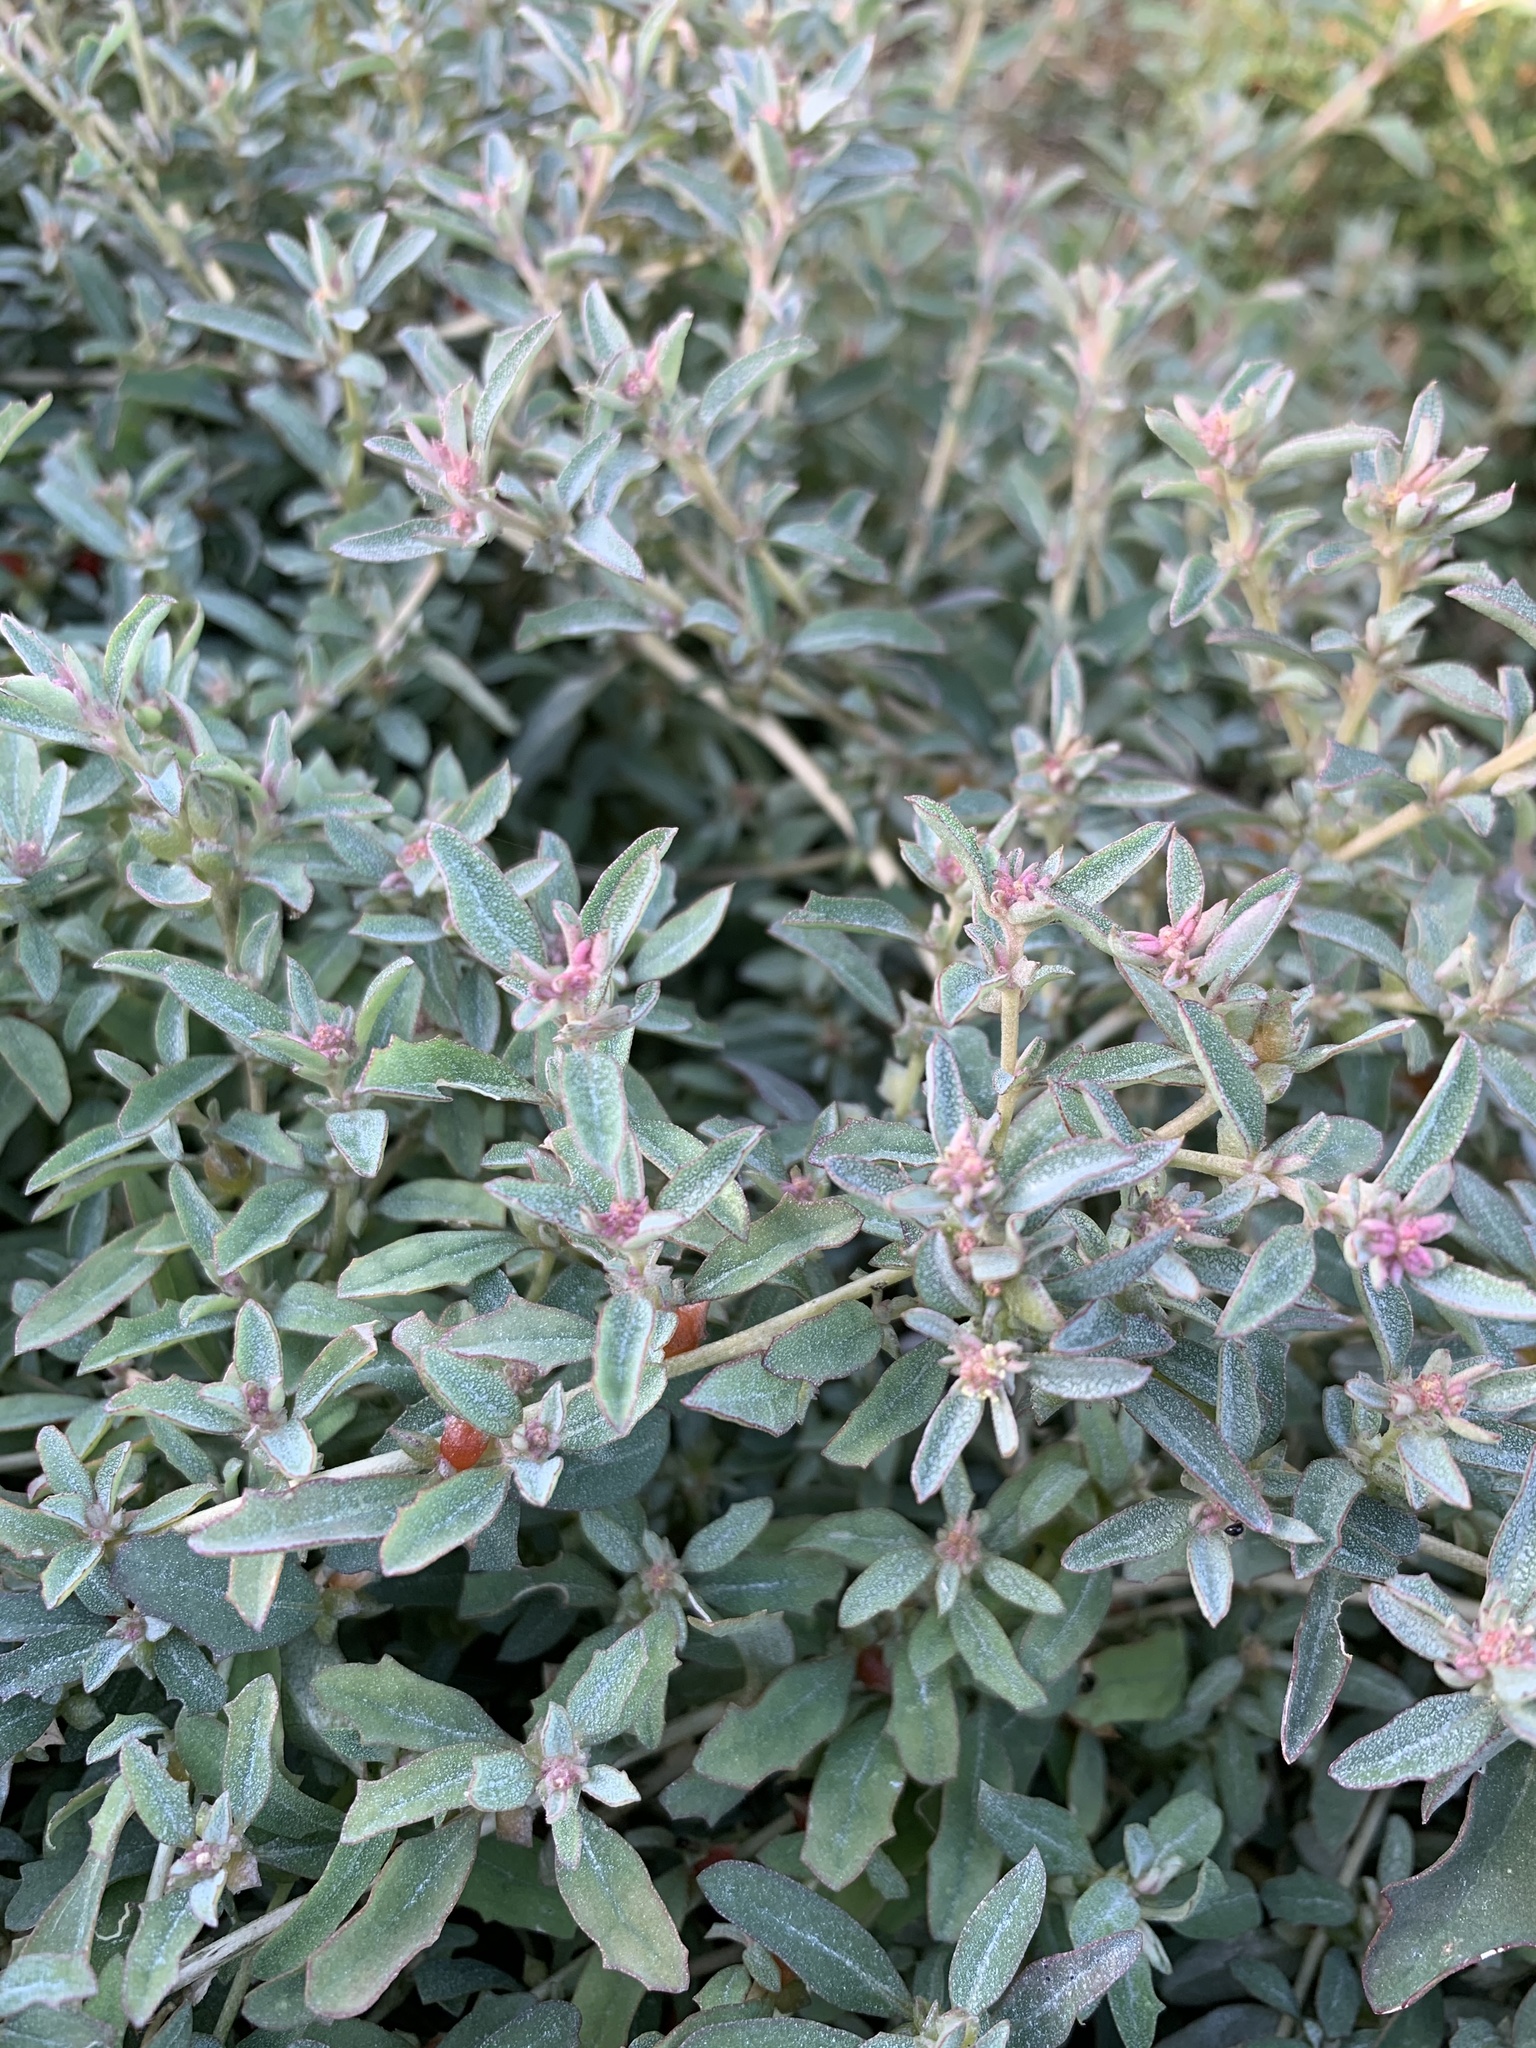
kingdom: Plantae
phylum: Tracheophyta
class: Magnoliopsida
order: Caryophyllales
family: Amaranthaceae
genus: Atriplex
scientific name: Atriplex semibaccata
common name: Australian saltbush
